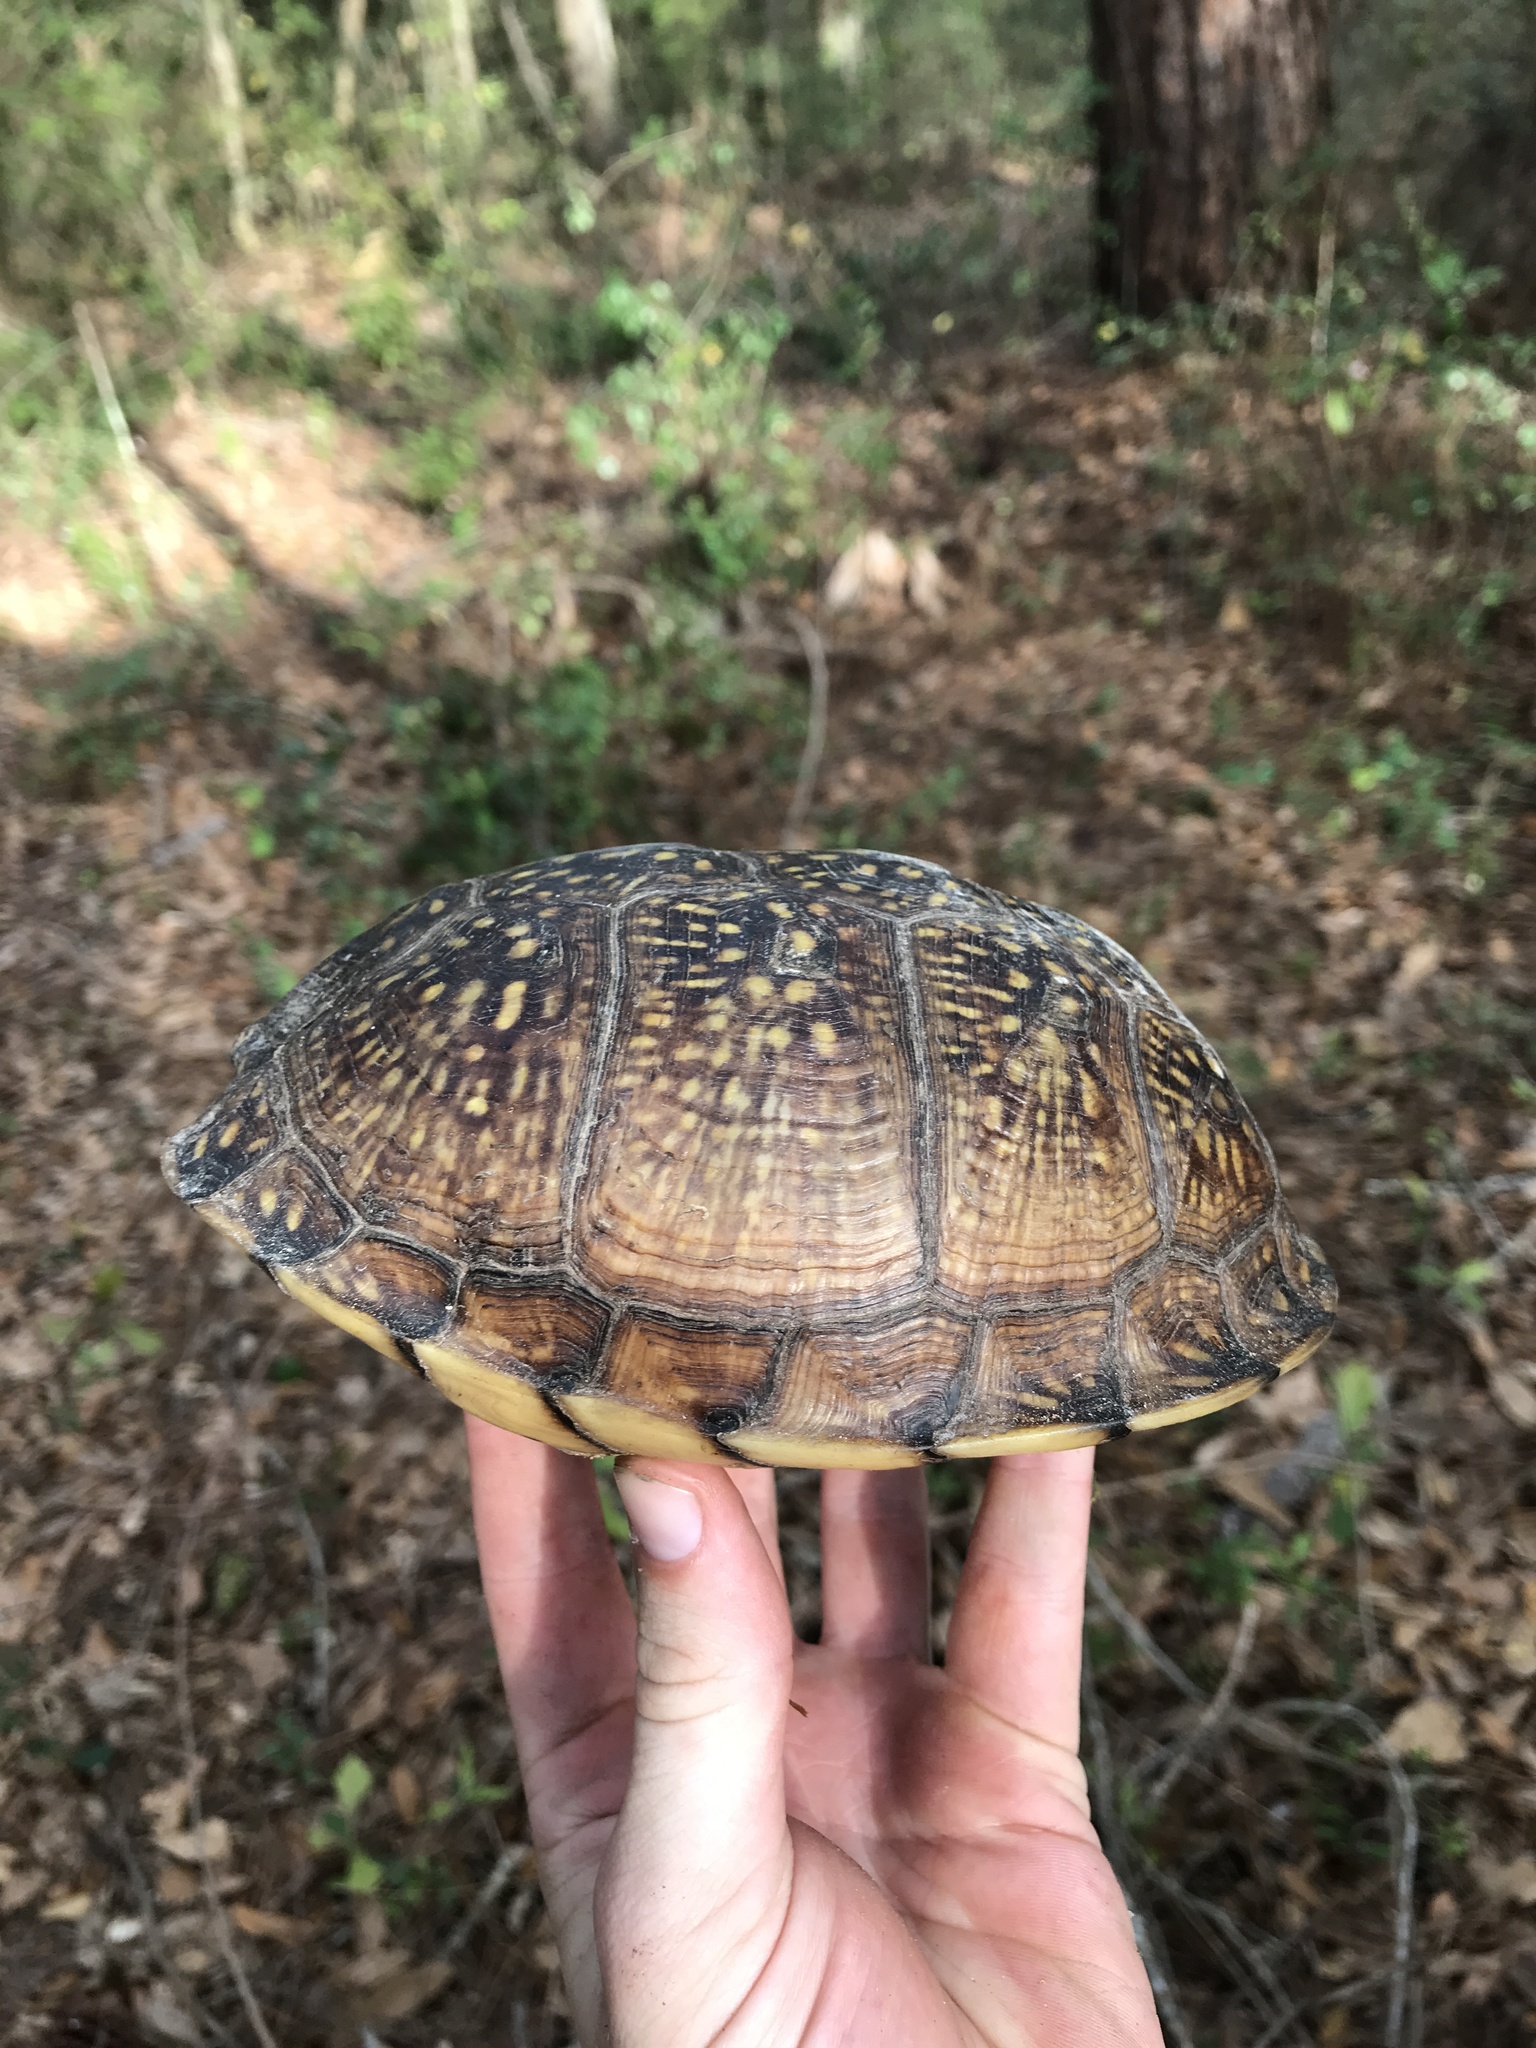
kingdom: Animalia
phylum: Chordata
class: Testudines
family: Emydidae
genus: Terrapene
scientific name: Terrapene carolina
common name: Common box turtle
